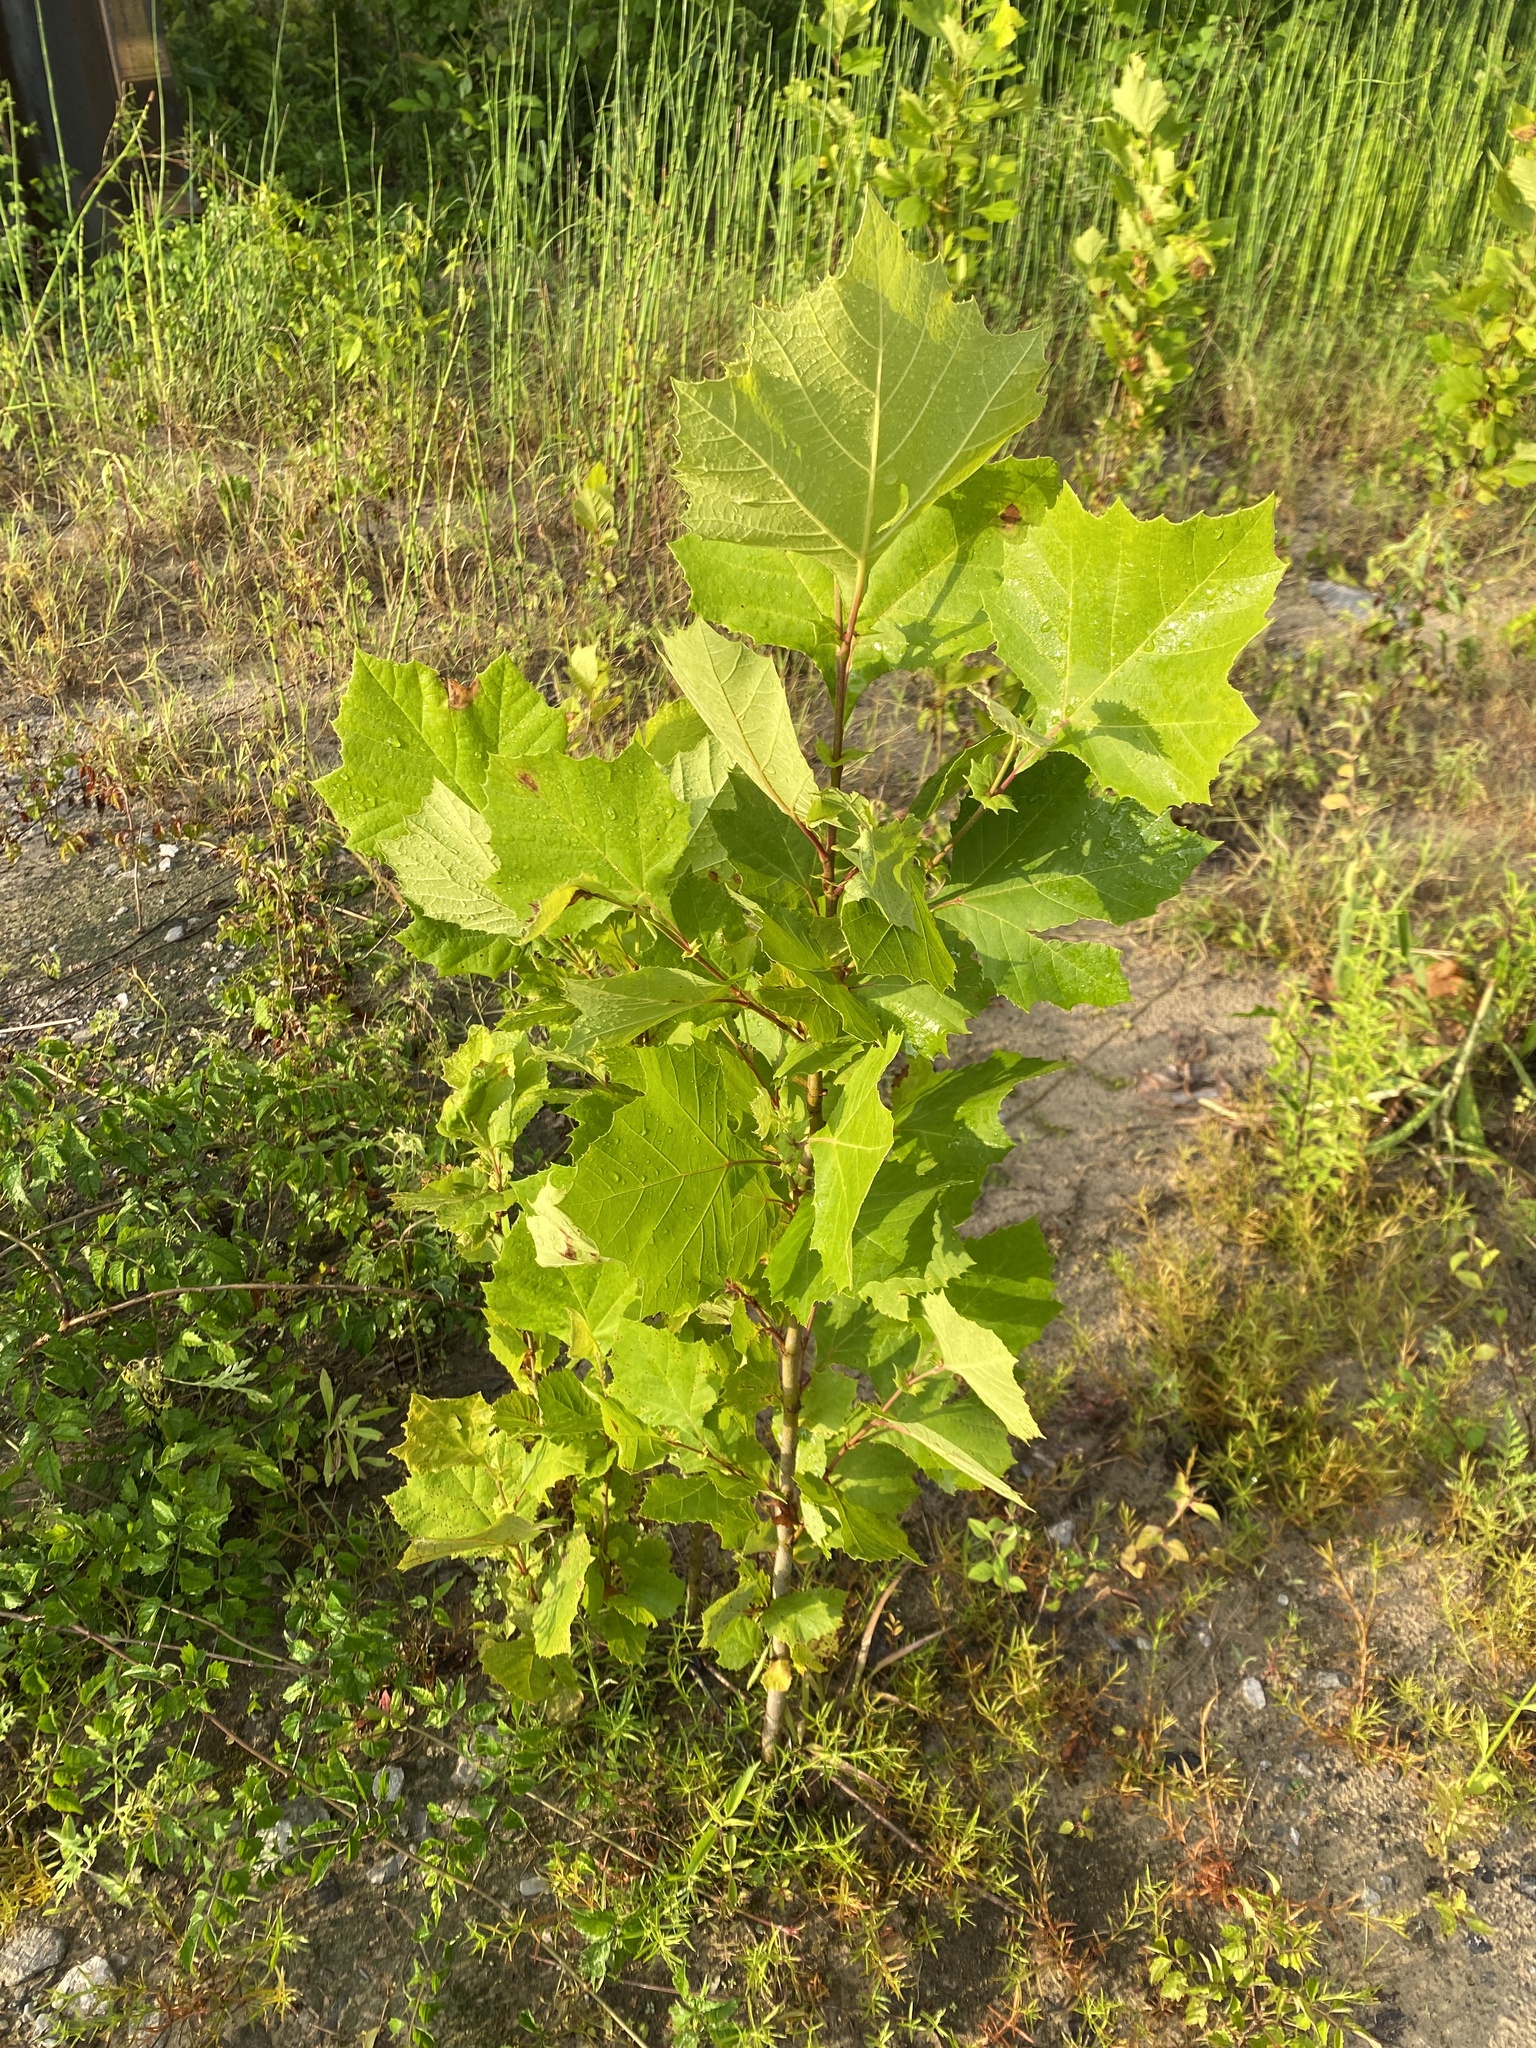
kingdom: Plantae
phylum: Tracheophyta
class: Magnoliopsida
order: Proteales
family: Platanaceae
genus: Platanus
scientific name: Platanus occidentalis
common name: American sycamore
